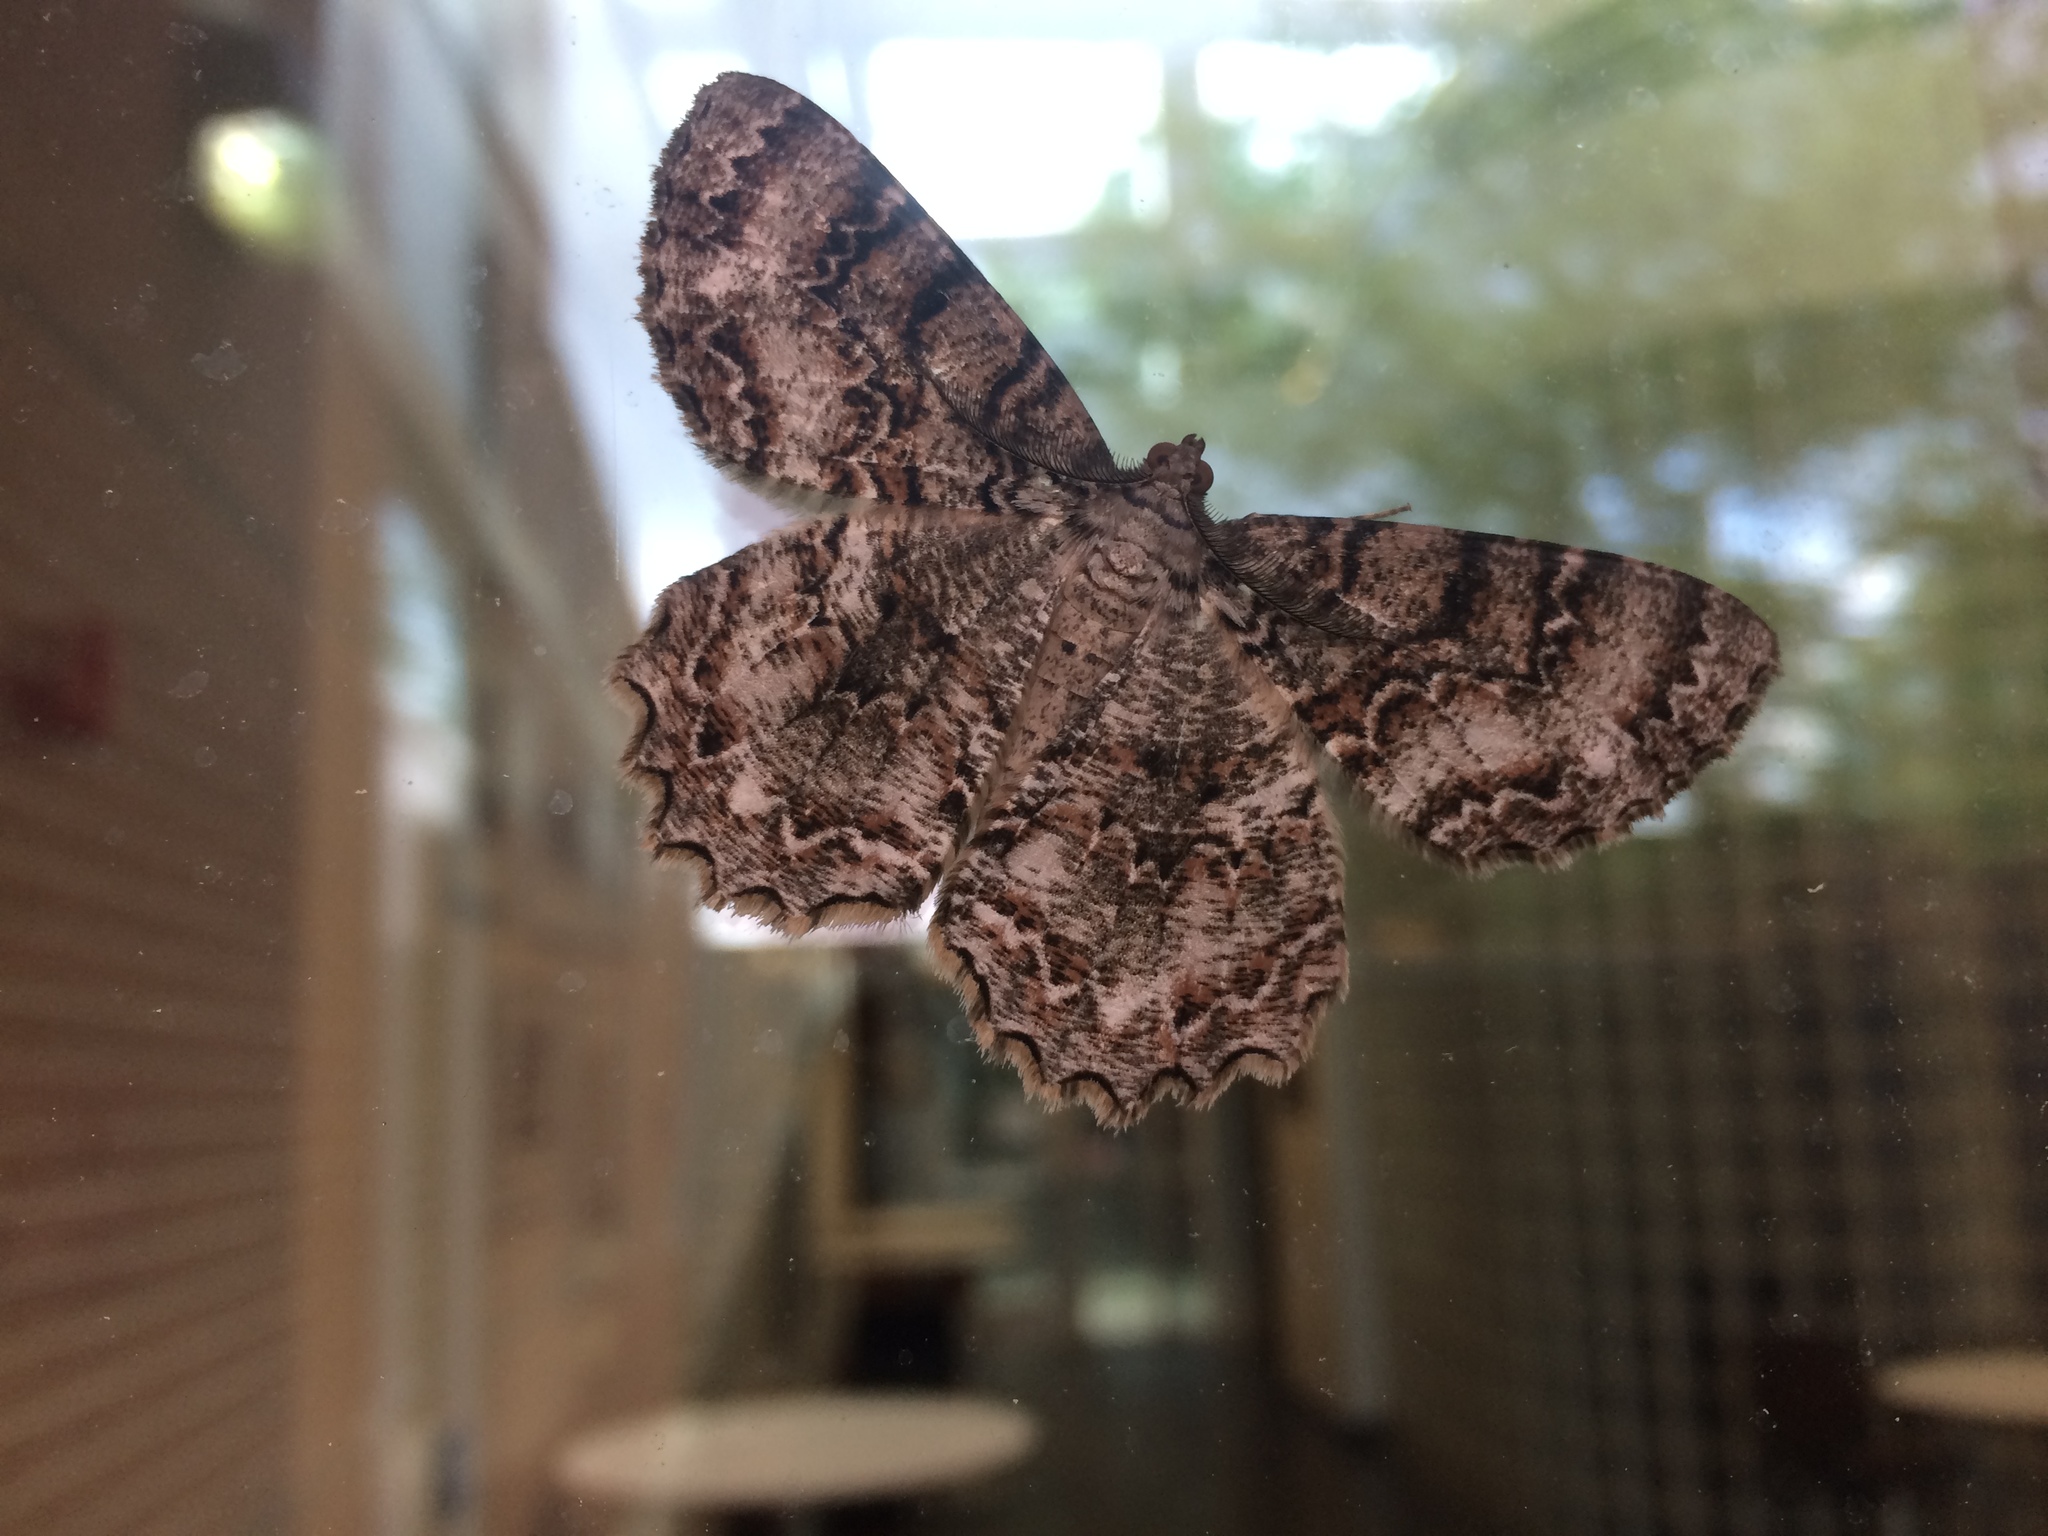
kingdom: Animalia
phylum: Arthropoda
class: Insecta
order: Lepidoptera
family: Geometridae
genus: Epimecis
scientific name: Epimecis hortaria
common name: Tulip-tree beauty
